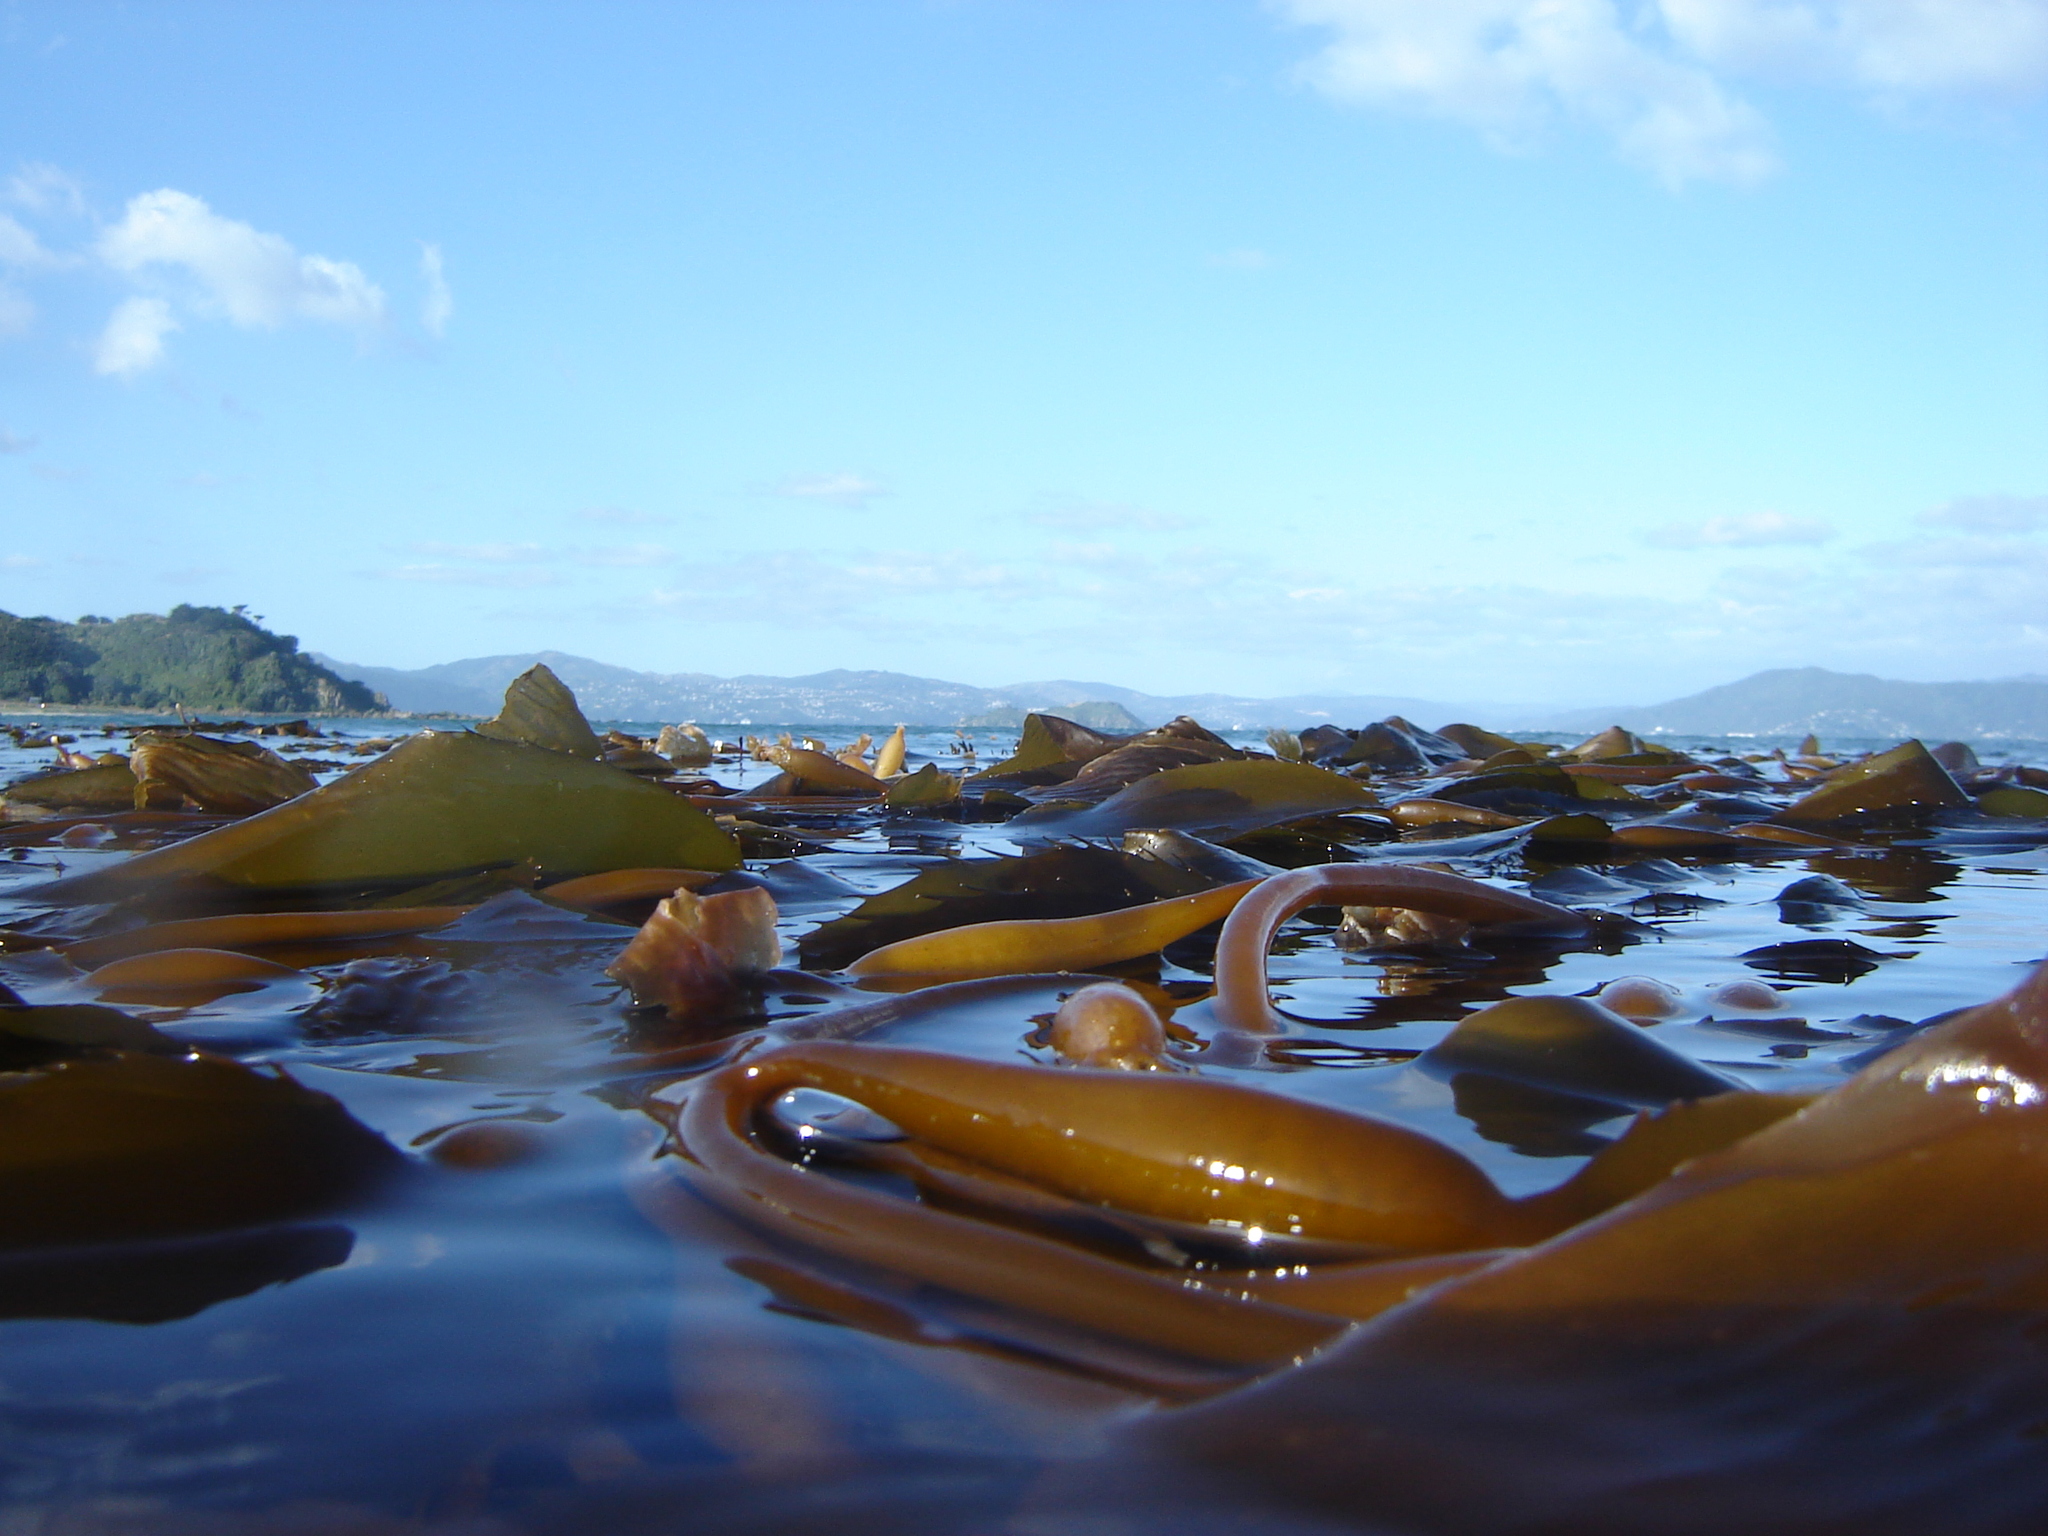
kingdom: Chromista
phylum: Ochrophyta
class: Phaeophyceae
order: Laminariales
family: Laminariaceae
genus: Macrocystis
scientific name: Macrocystis pyrifera
